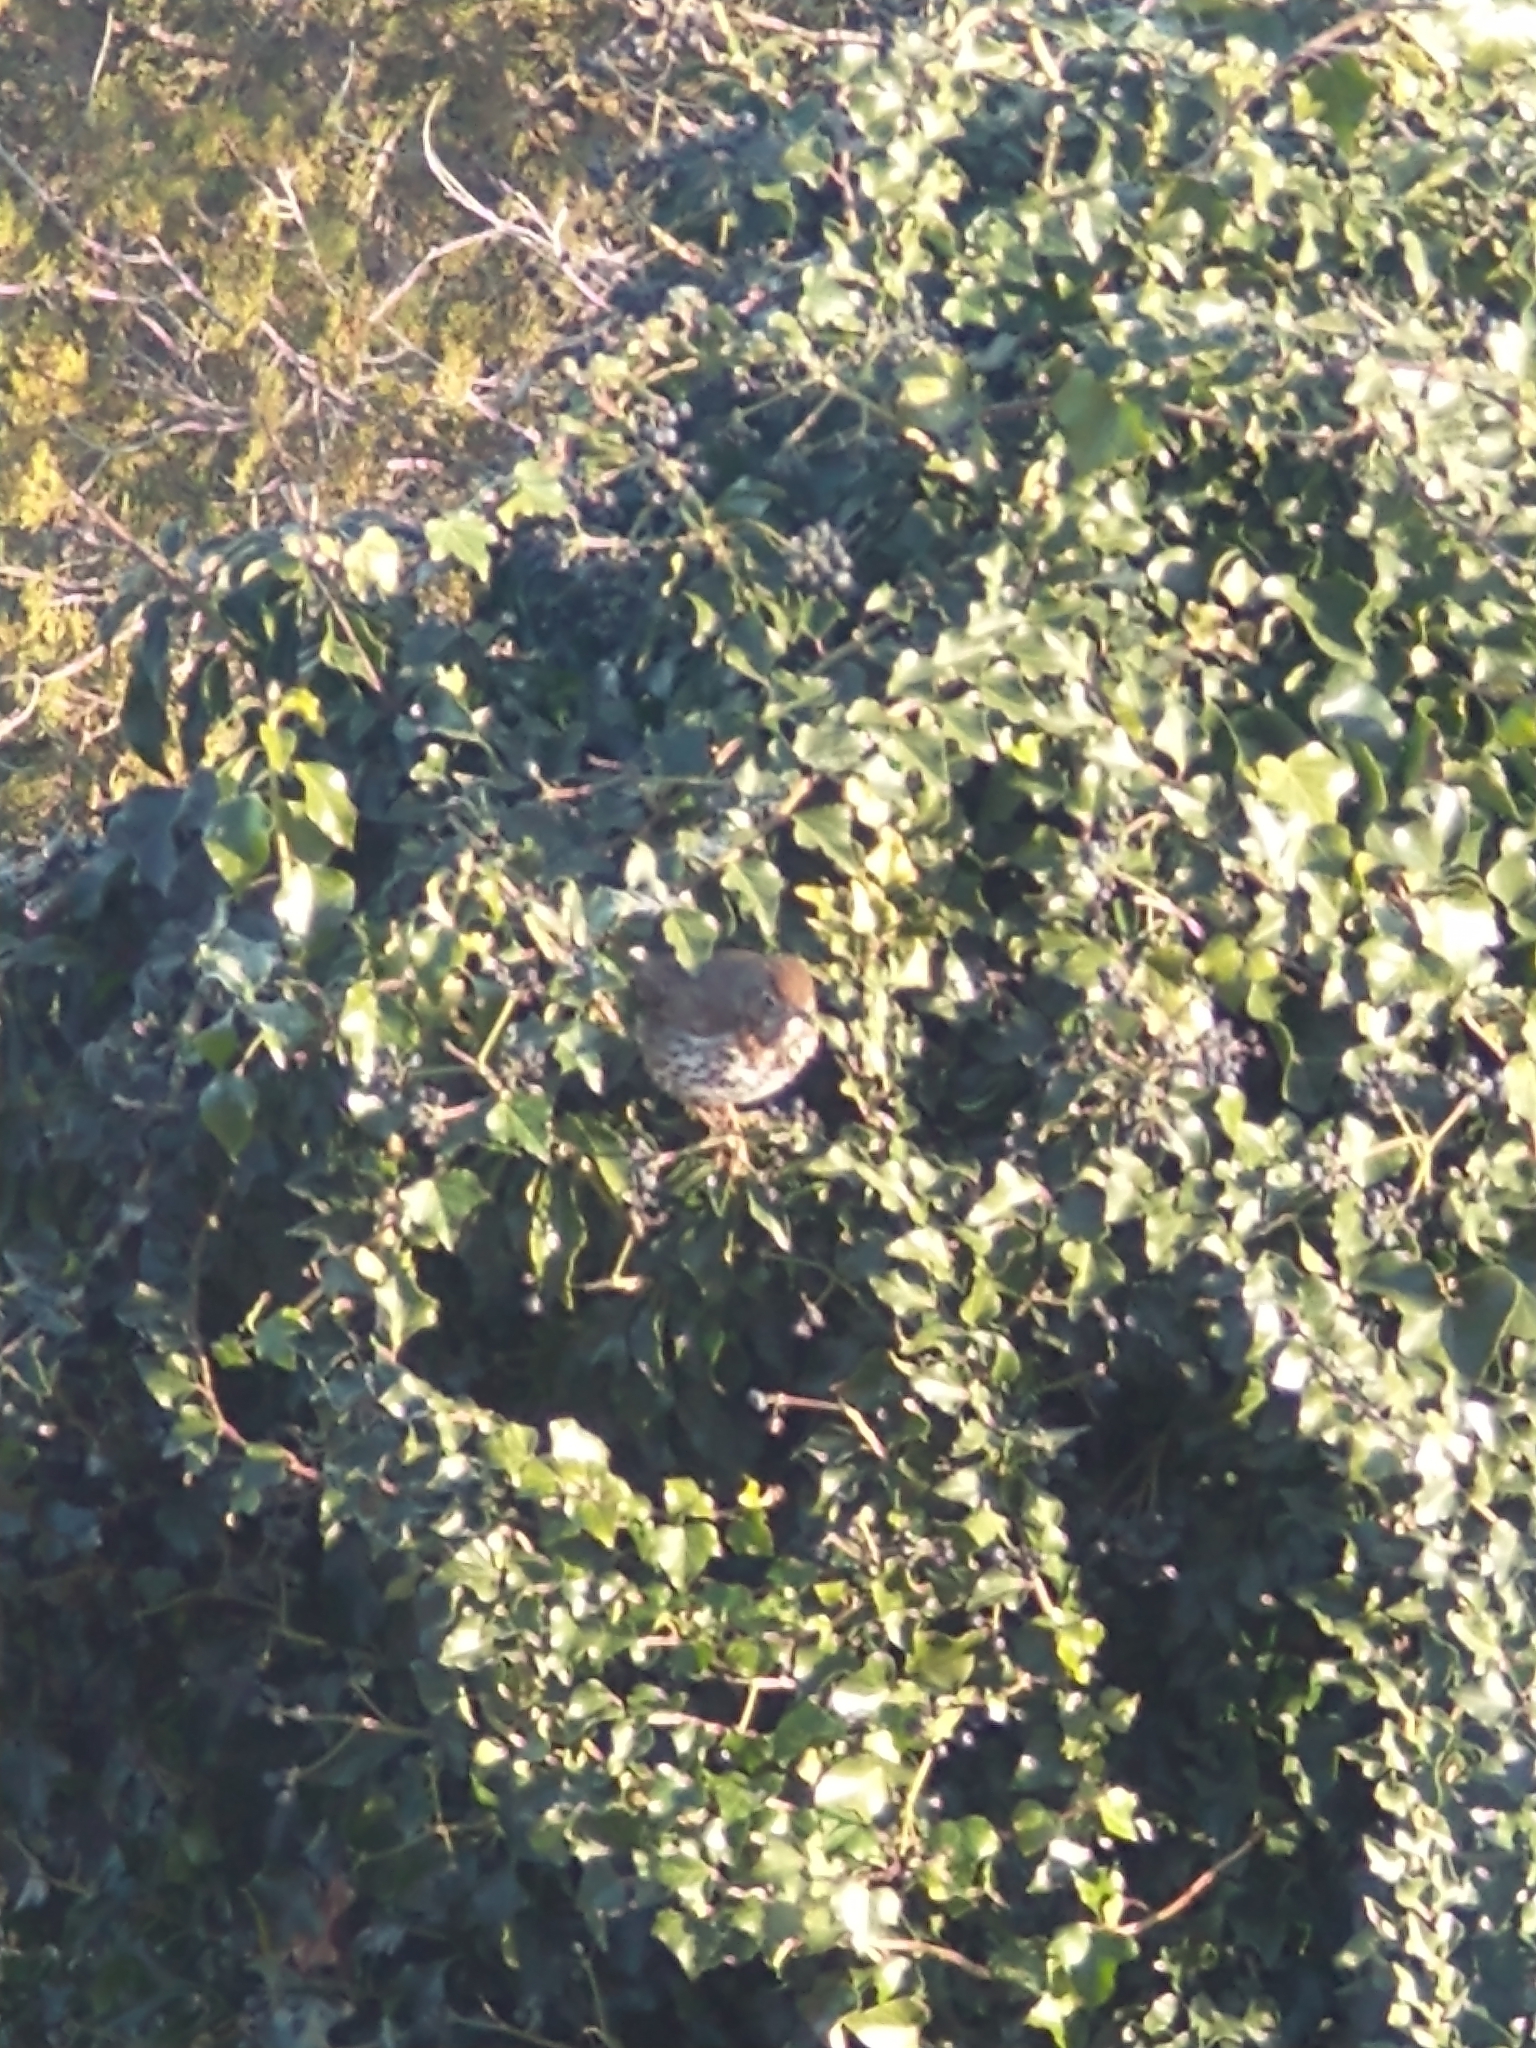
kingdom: Animalia
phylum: Chordata
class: Aves
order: Passeriformes
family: Turdidae
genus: Turdus
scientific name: Turdus philomelos
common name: Song thrush
